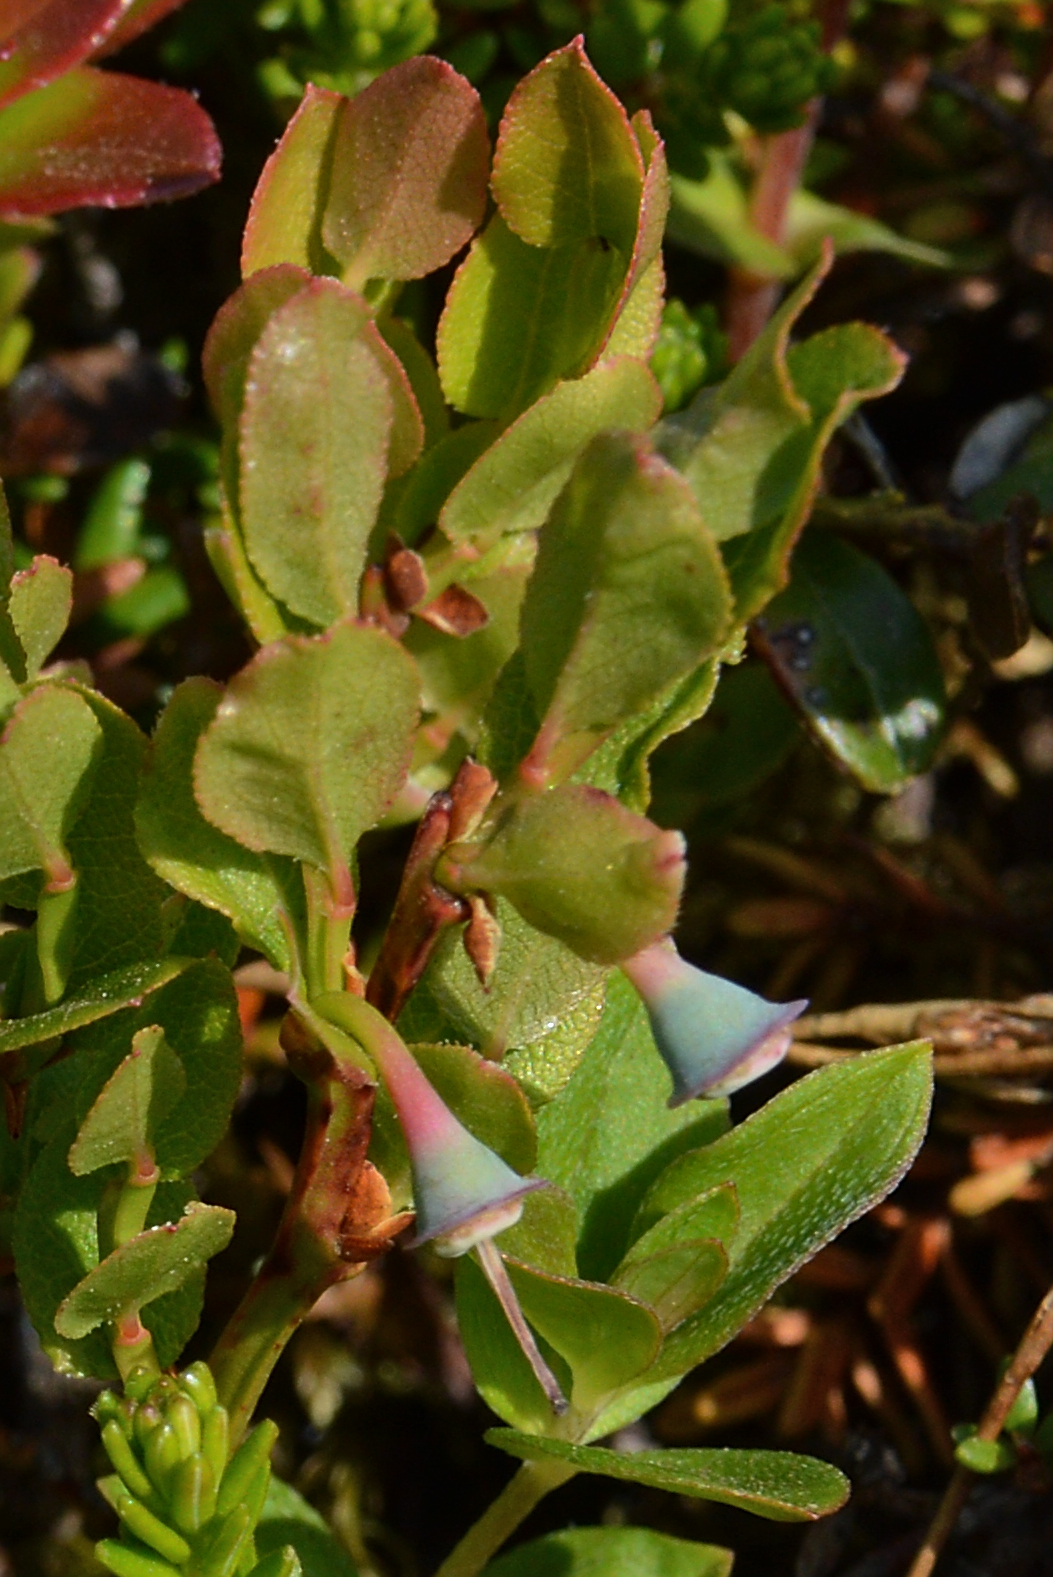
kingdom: Plantae
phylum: Tracheophyta
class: Magnoliopsida
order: Ericales
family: Ericaceae
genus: Vaccinium
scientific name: Vaccinium myrtillus
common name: Bilberry
